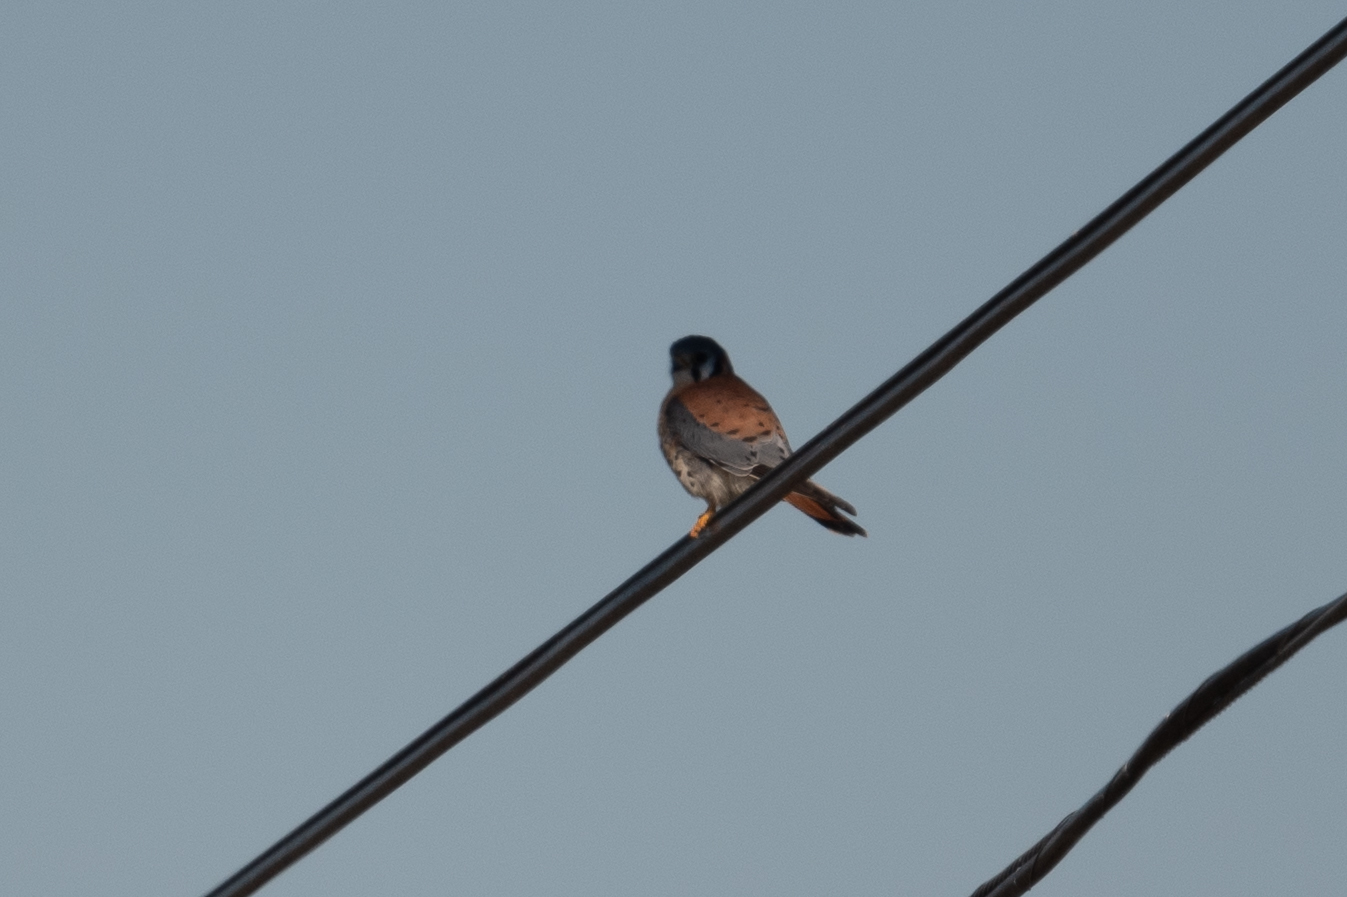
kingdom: Animalia
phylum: Chordata
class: Aves
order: Falconiformes
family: Falconidae
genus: Falco
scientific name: Falco sparverius
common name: American kestrel
